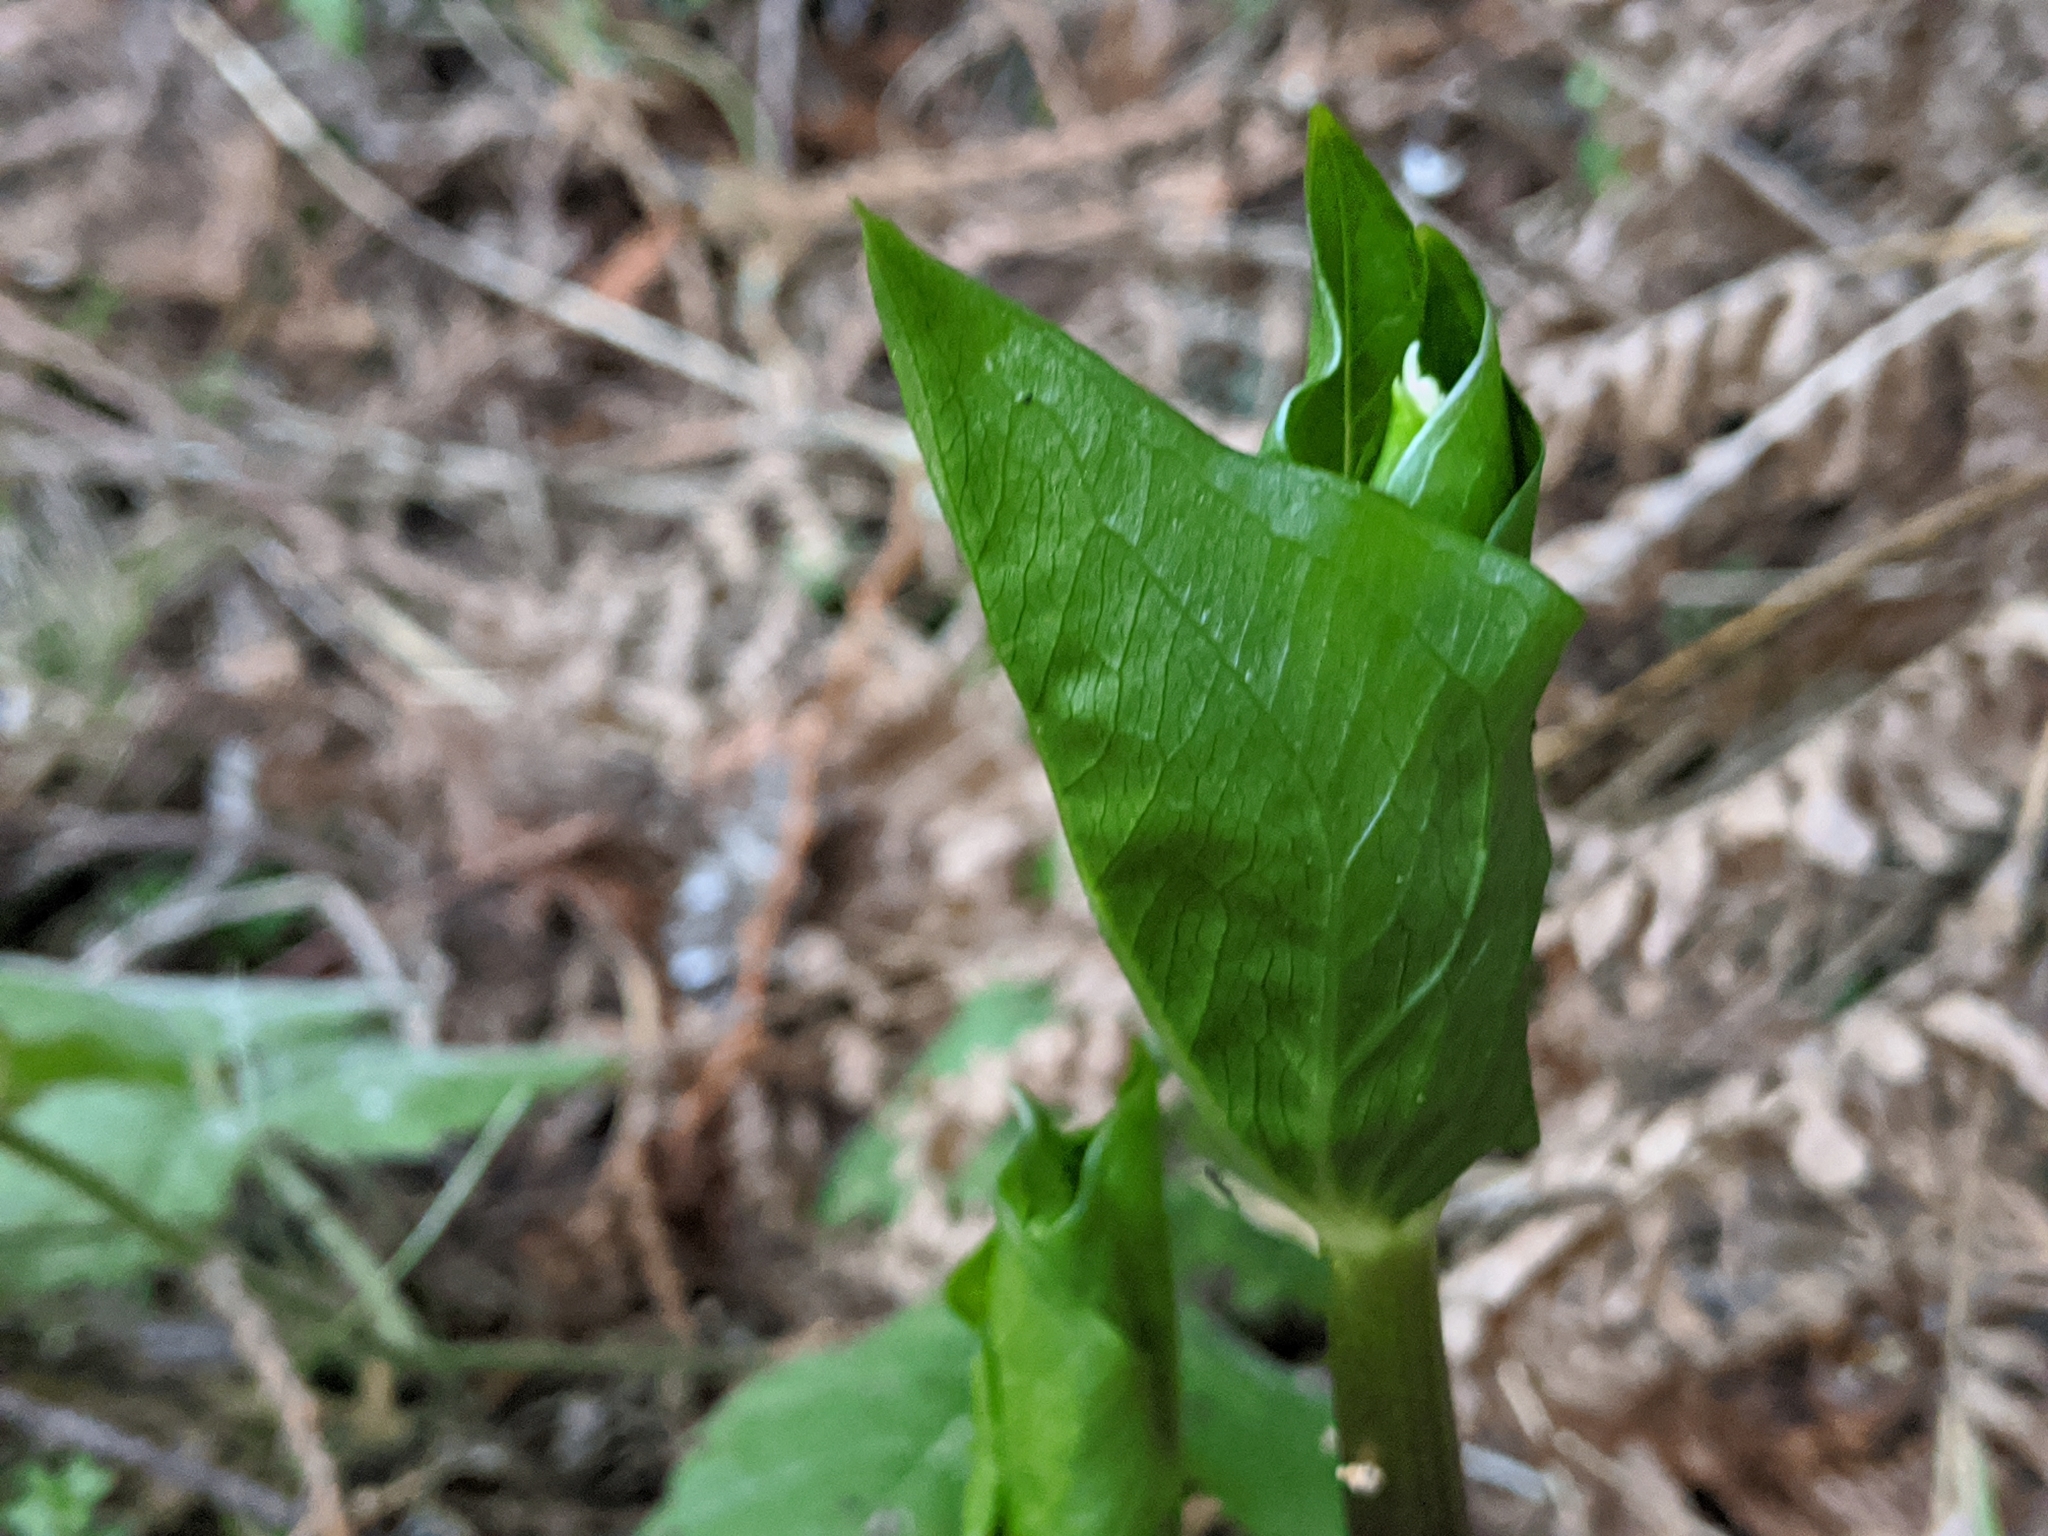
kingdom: Plantae
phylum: Tracheophyta
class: Liliopsida
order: Liliales
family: Melanthiaceae
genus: Trillium
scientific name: Trillium ovatum
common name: Pacific trillium
